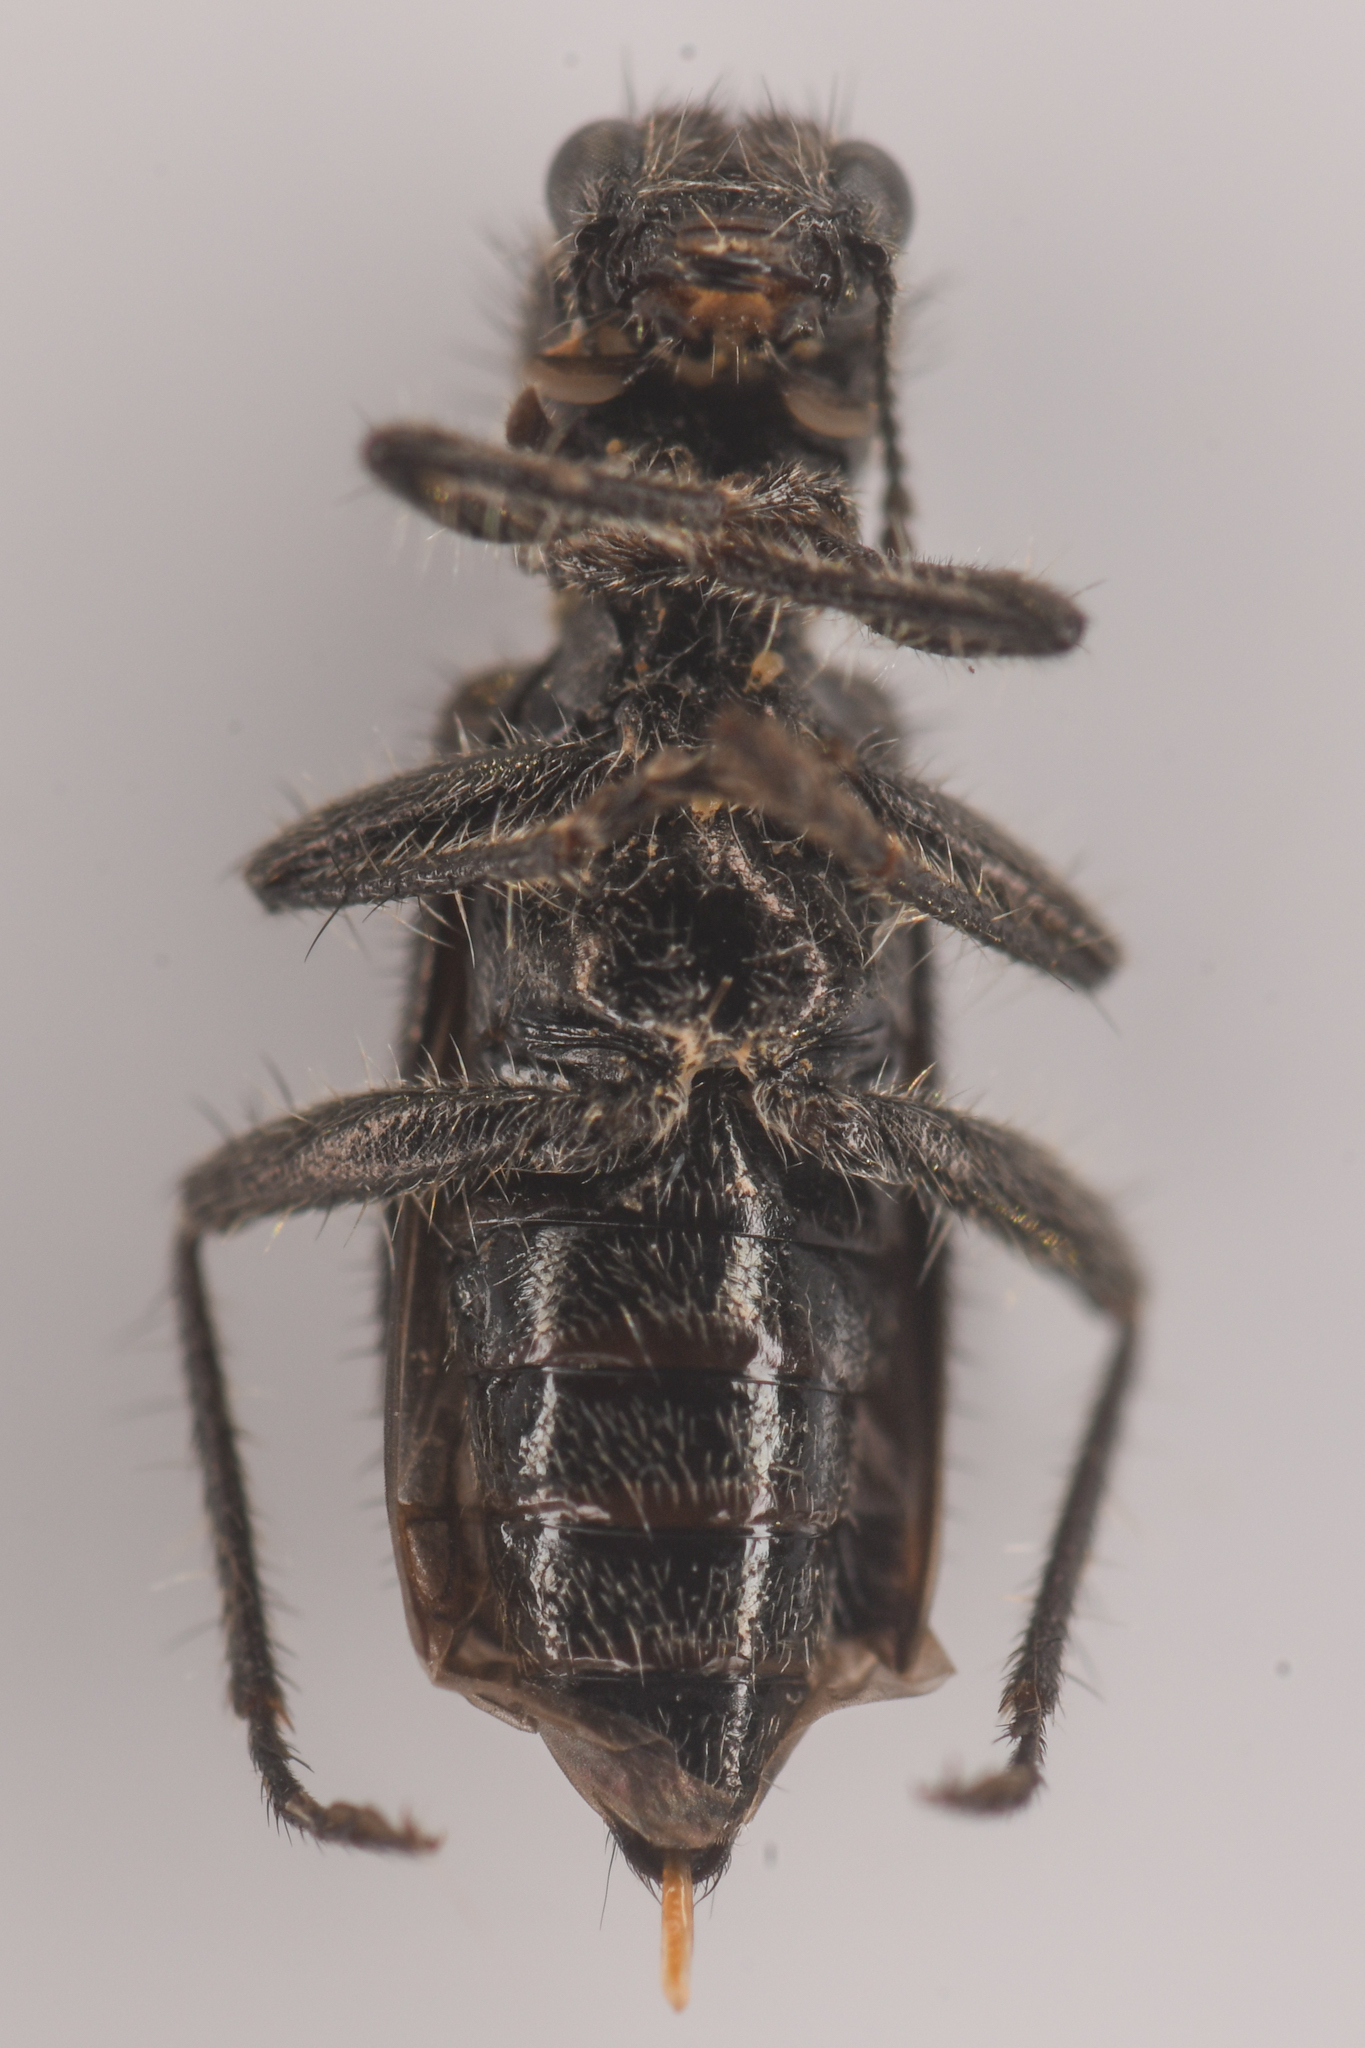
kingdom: Animalia
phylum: Arthropoda
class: Insecta
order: Coleoptera
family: Cleridae
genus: Enoclerus
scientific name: Enoclerus lecontei
